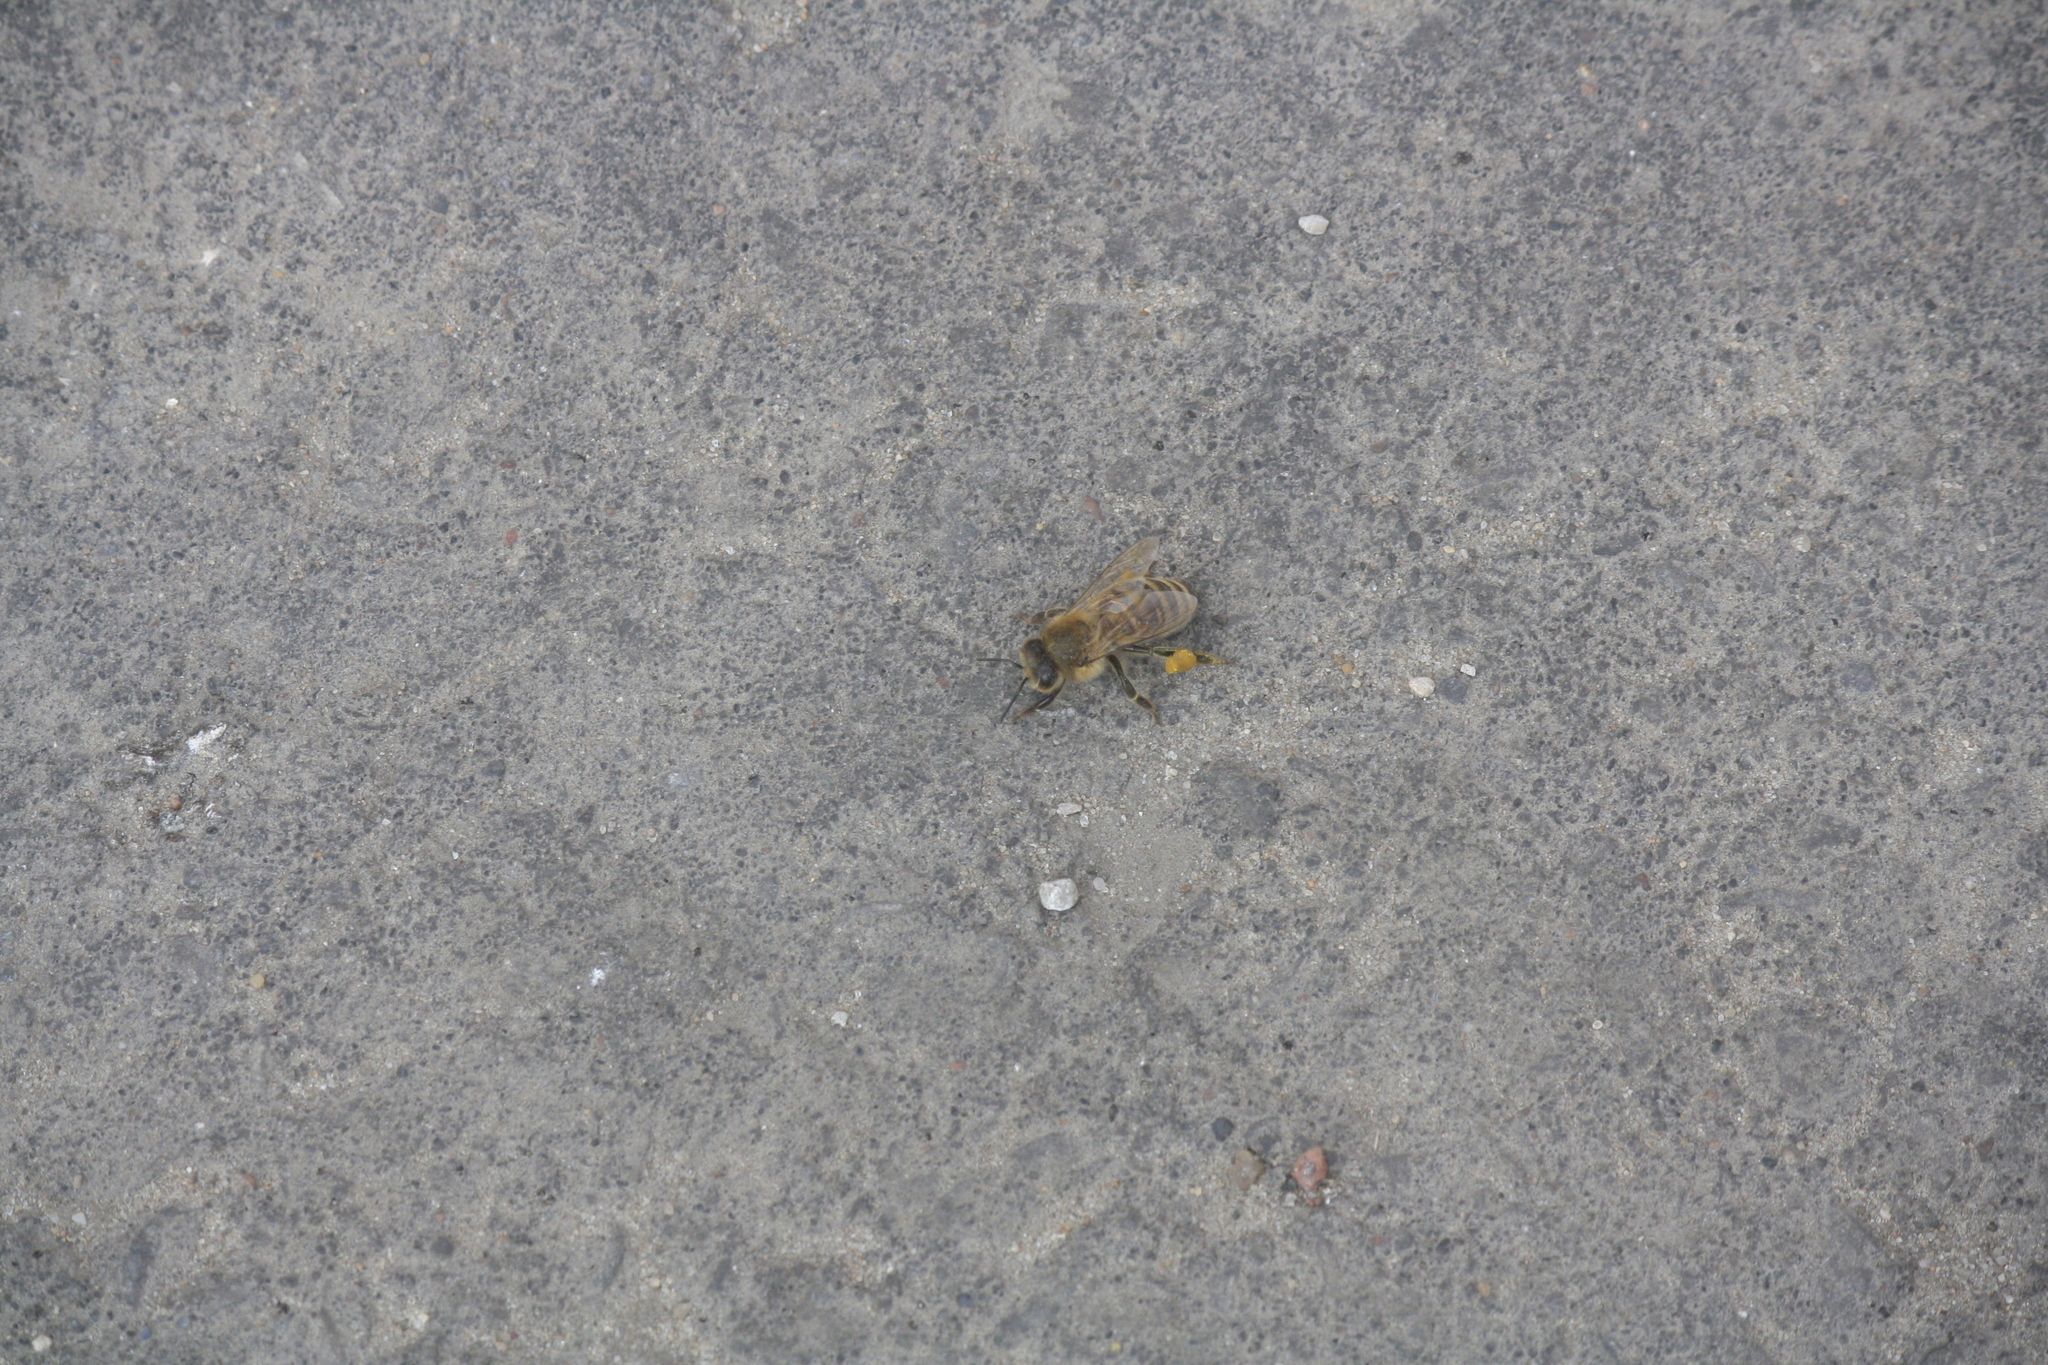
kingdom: Animalia
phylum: Arthropoda
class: Insecta
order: Hymenoptera
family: Apidae
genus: Apis
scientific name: Apis mellifera
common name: Honey bee
